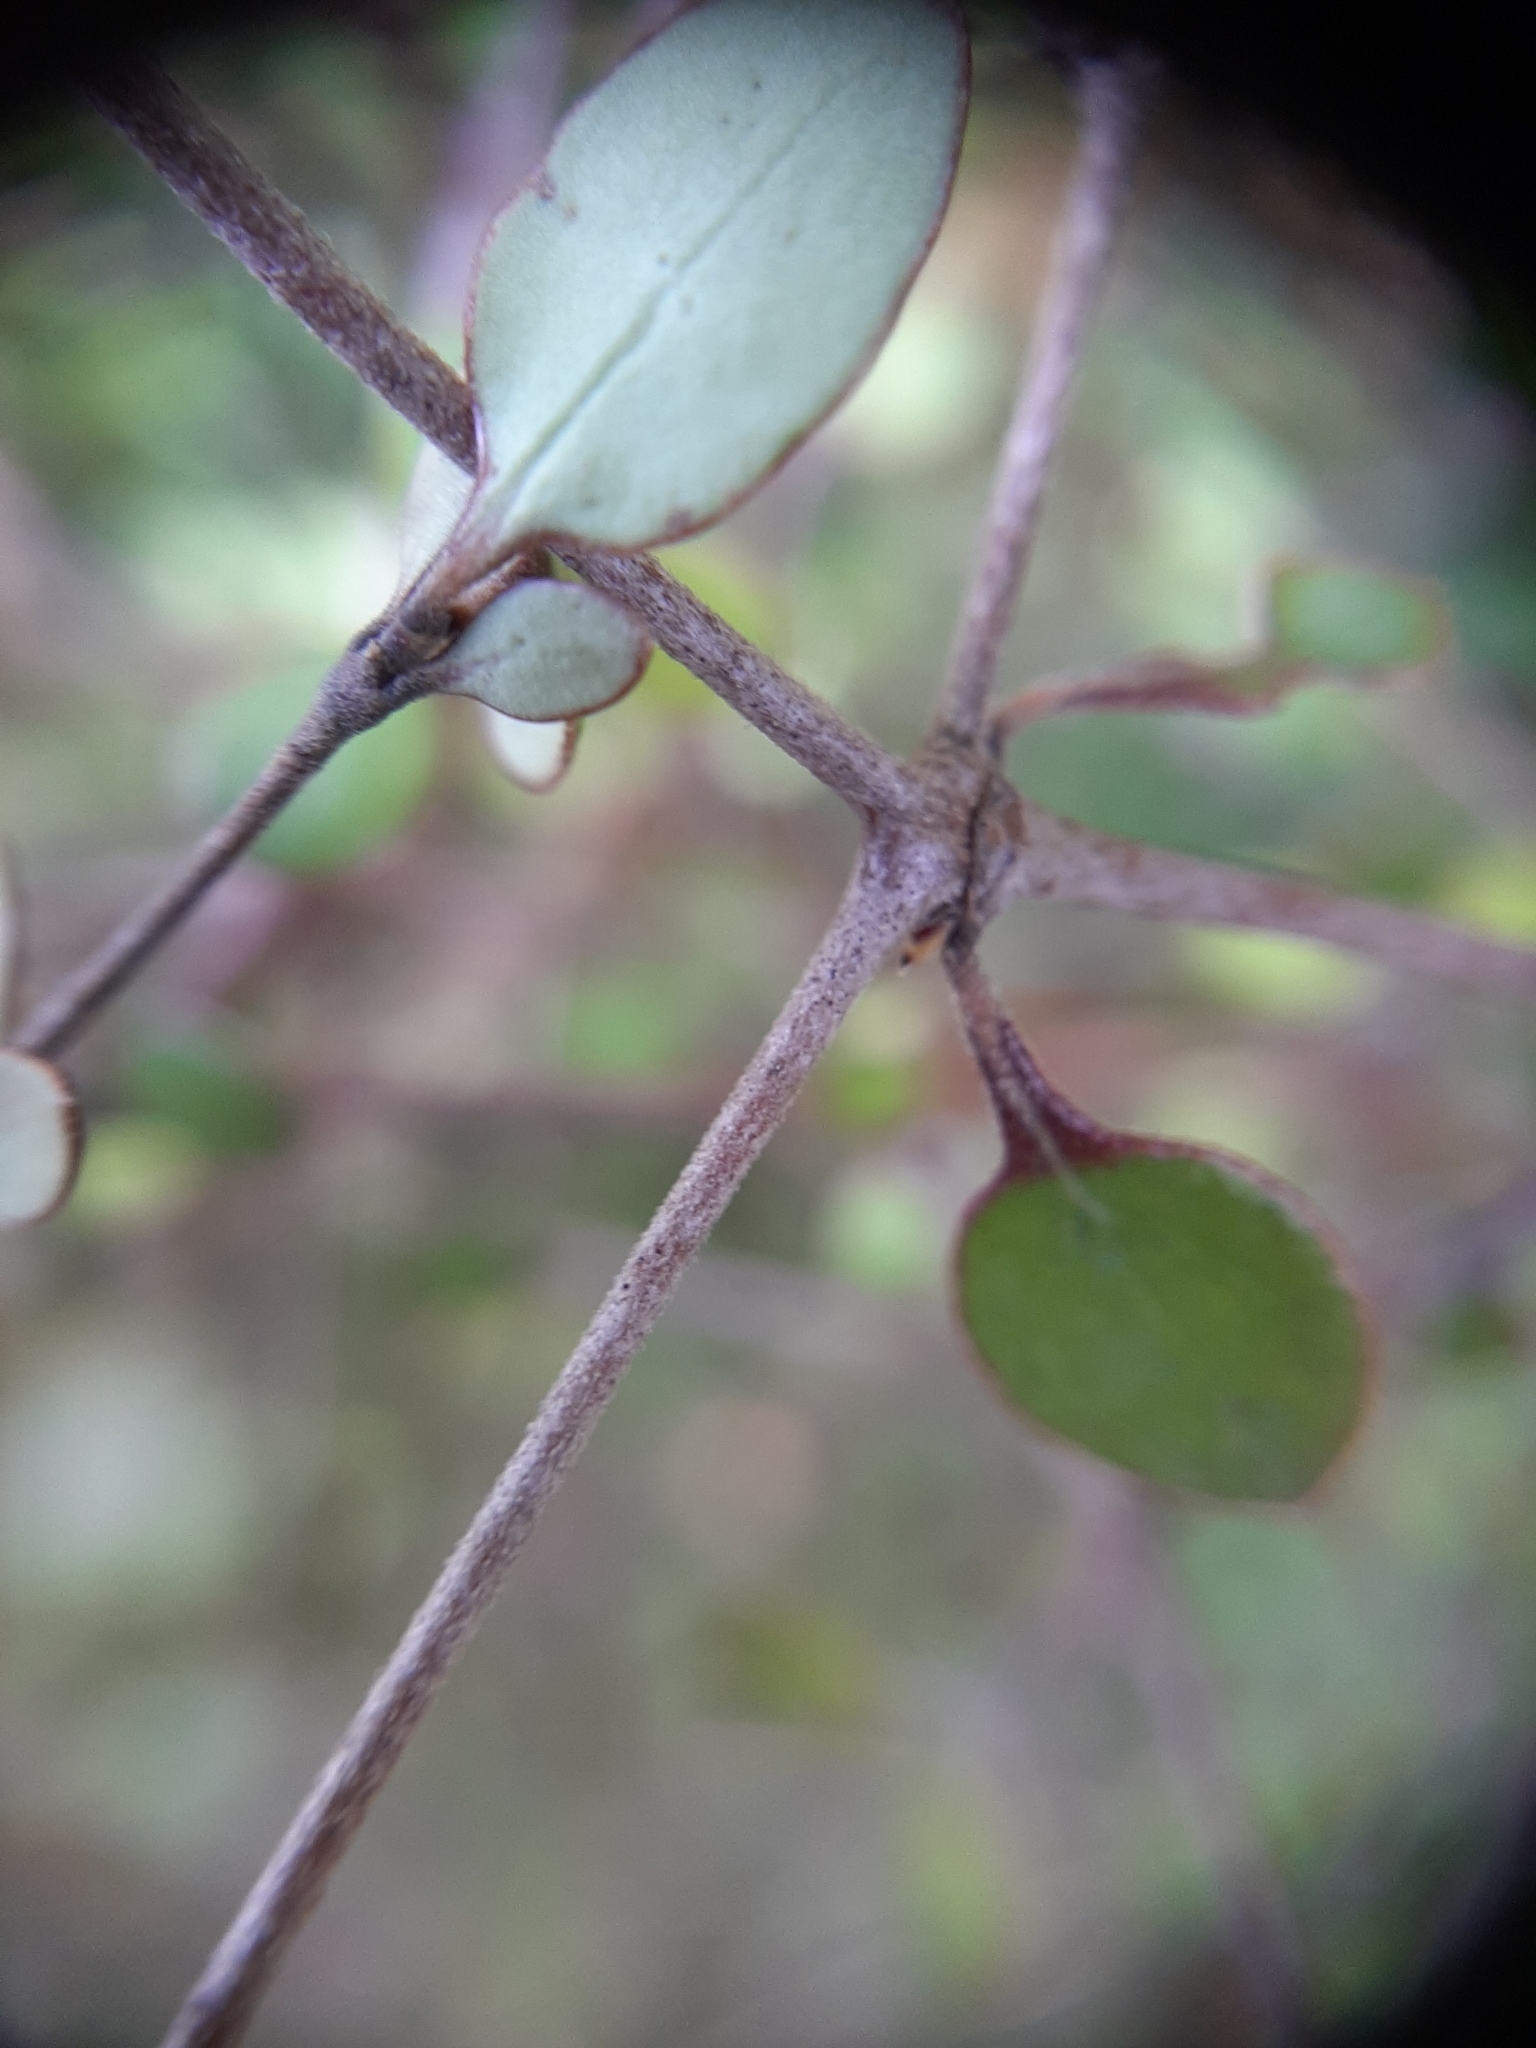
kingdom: Plantae
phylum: Tracheophyta
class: Magnoliopsida
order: Gentianales
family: Rubiaceae
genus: Coprosma
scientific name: Coprosma crassifolia
